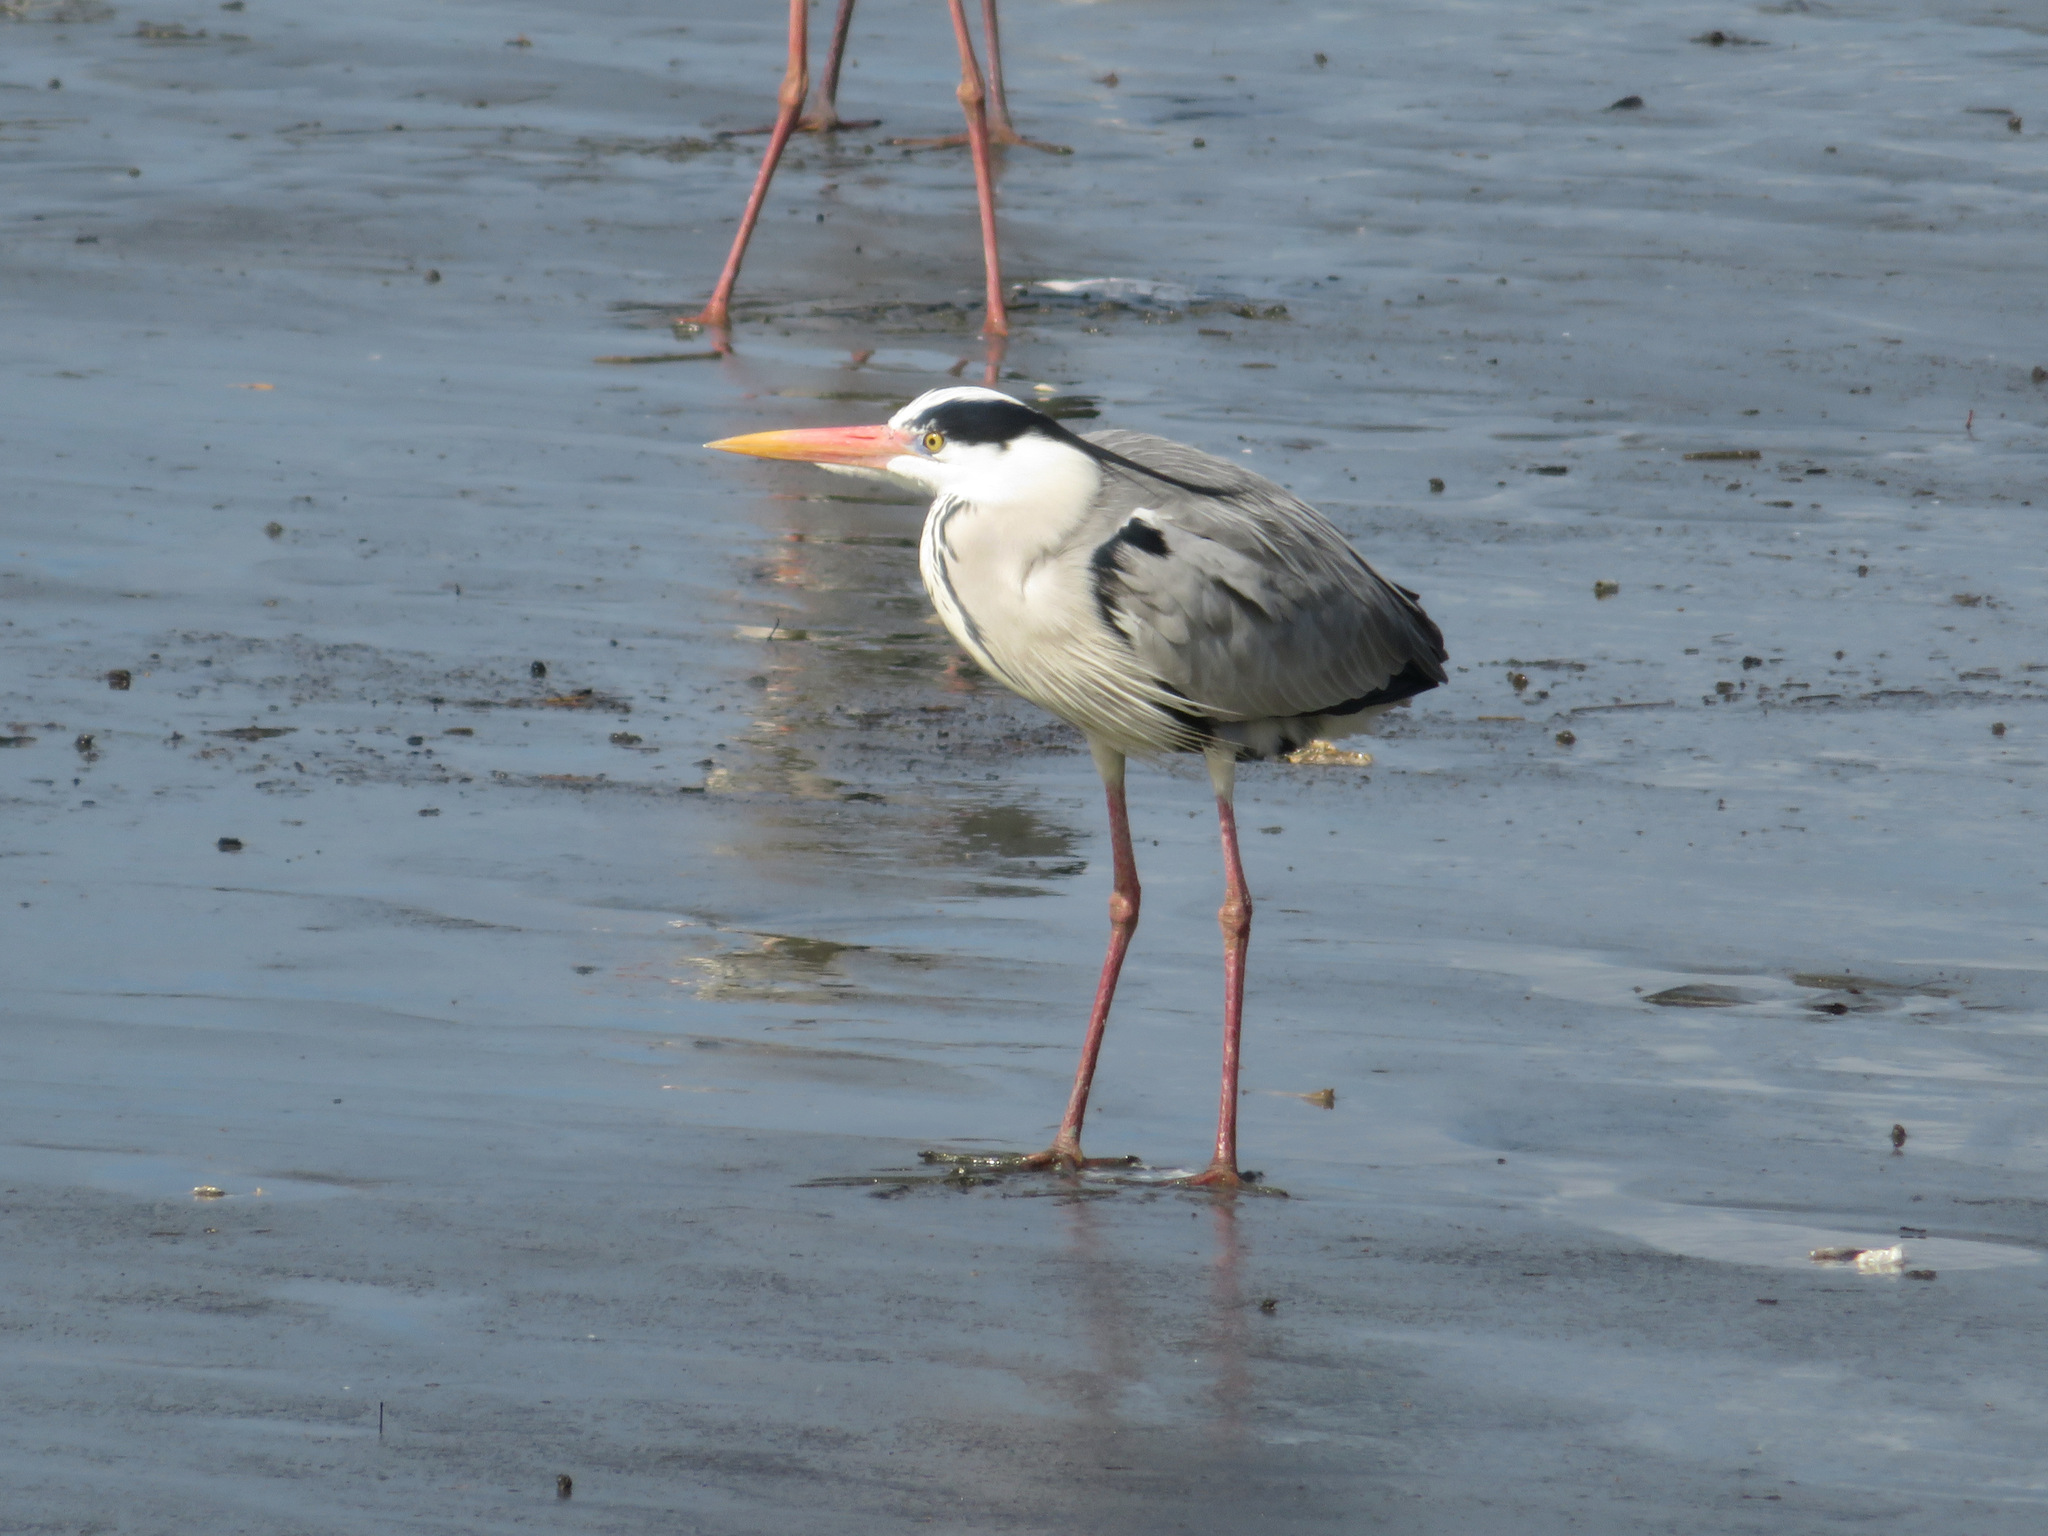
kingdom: Animalia
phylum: Chordata
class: Aves
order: Pelecaniformes
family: Ardeidae
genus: Ardea
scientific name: Ardea cinerea
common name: Grey heron
